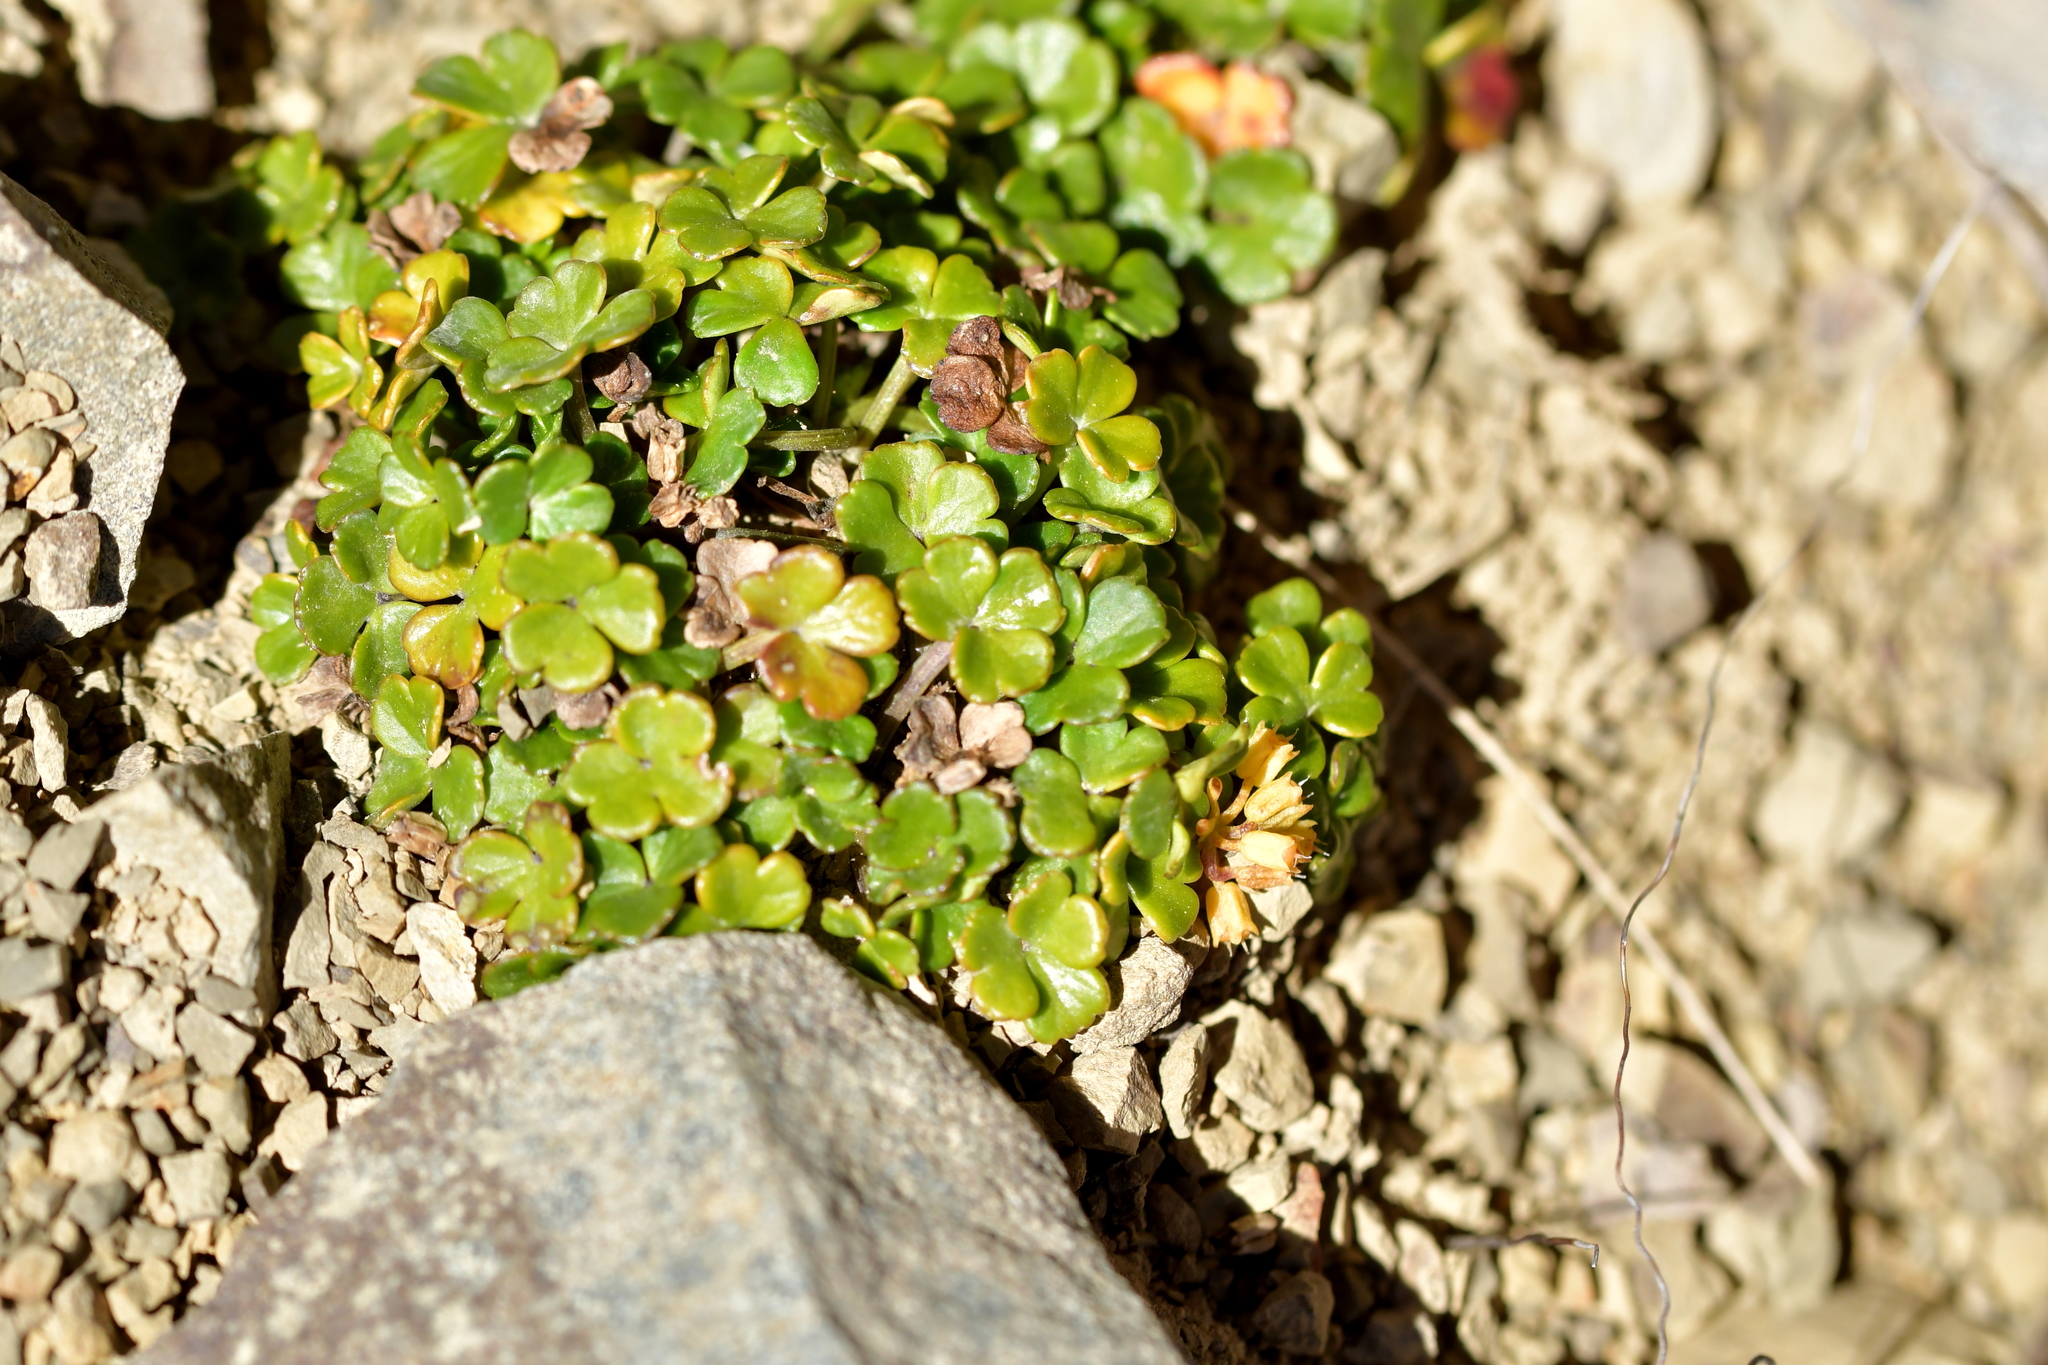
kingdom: Plantae
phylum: Tracheophyta
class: Magnoliopsida
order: Apiales
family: Apiaceae
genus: Azorella
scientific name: Azorella hydrocotyloides
